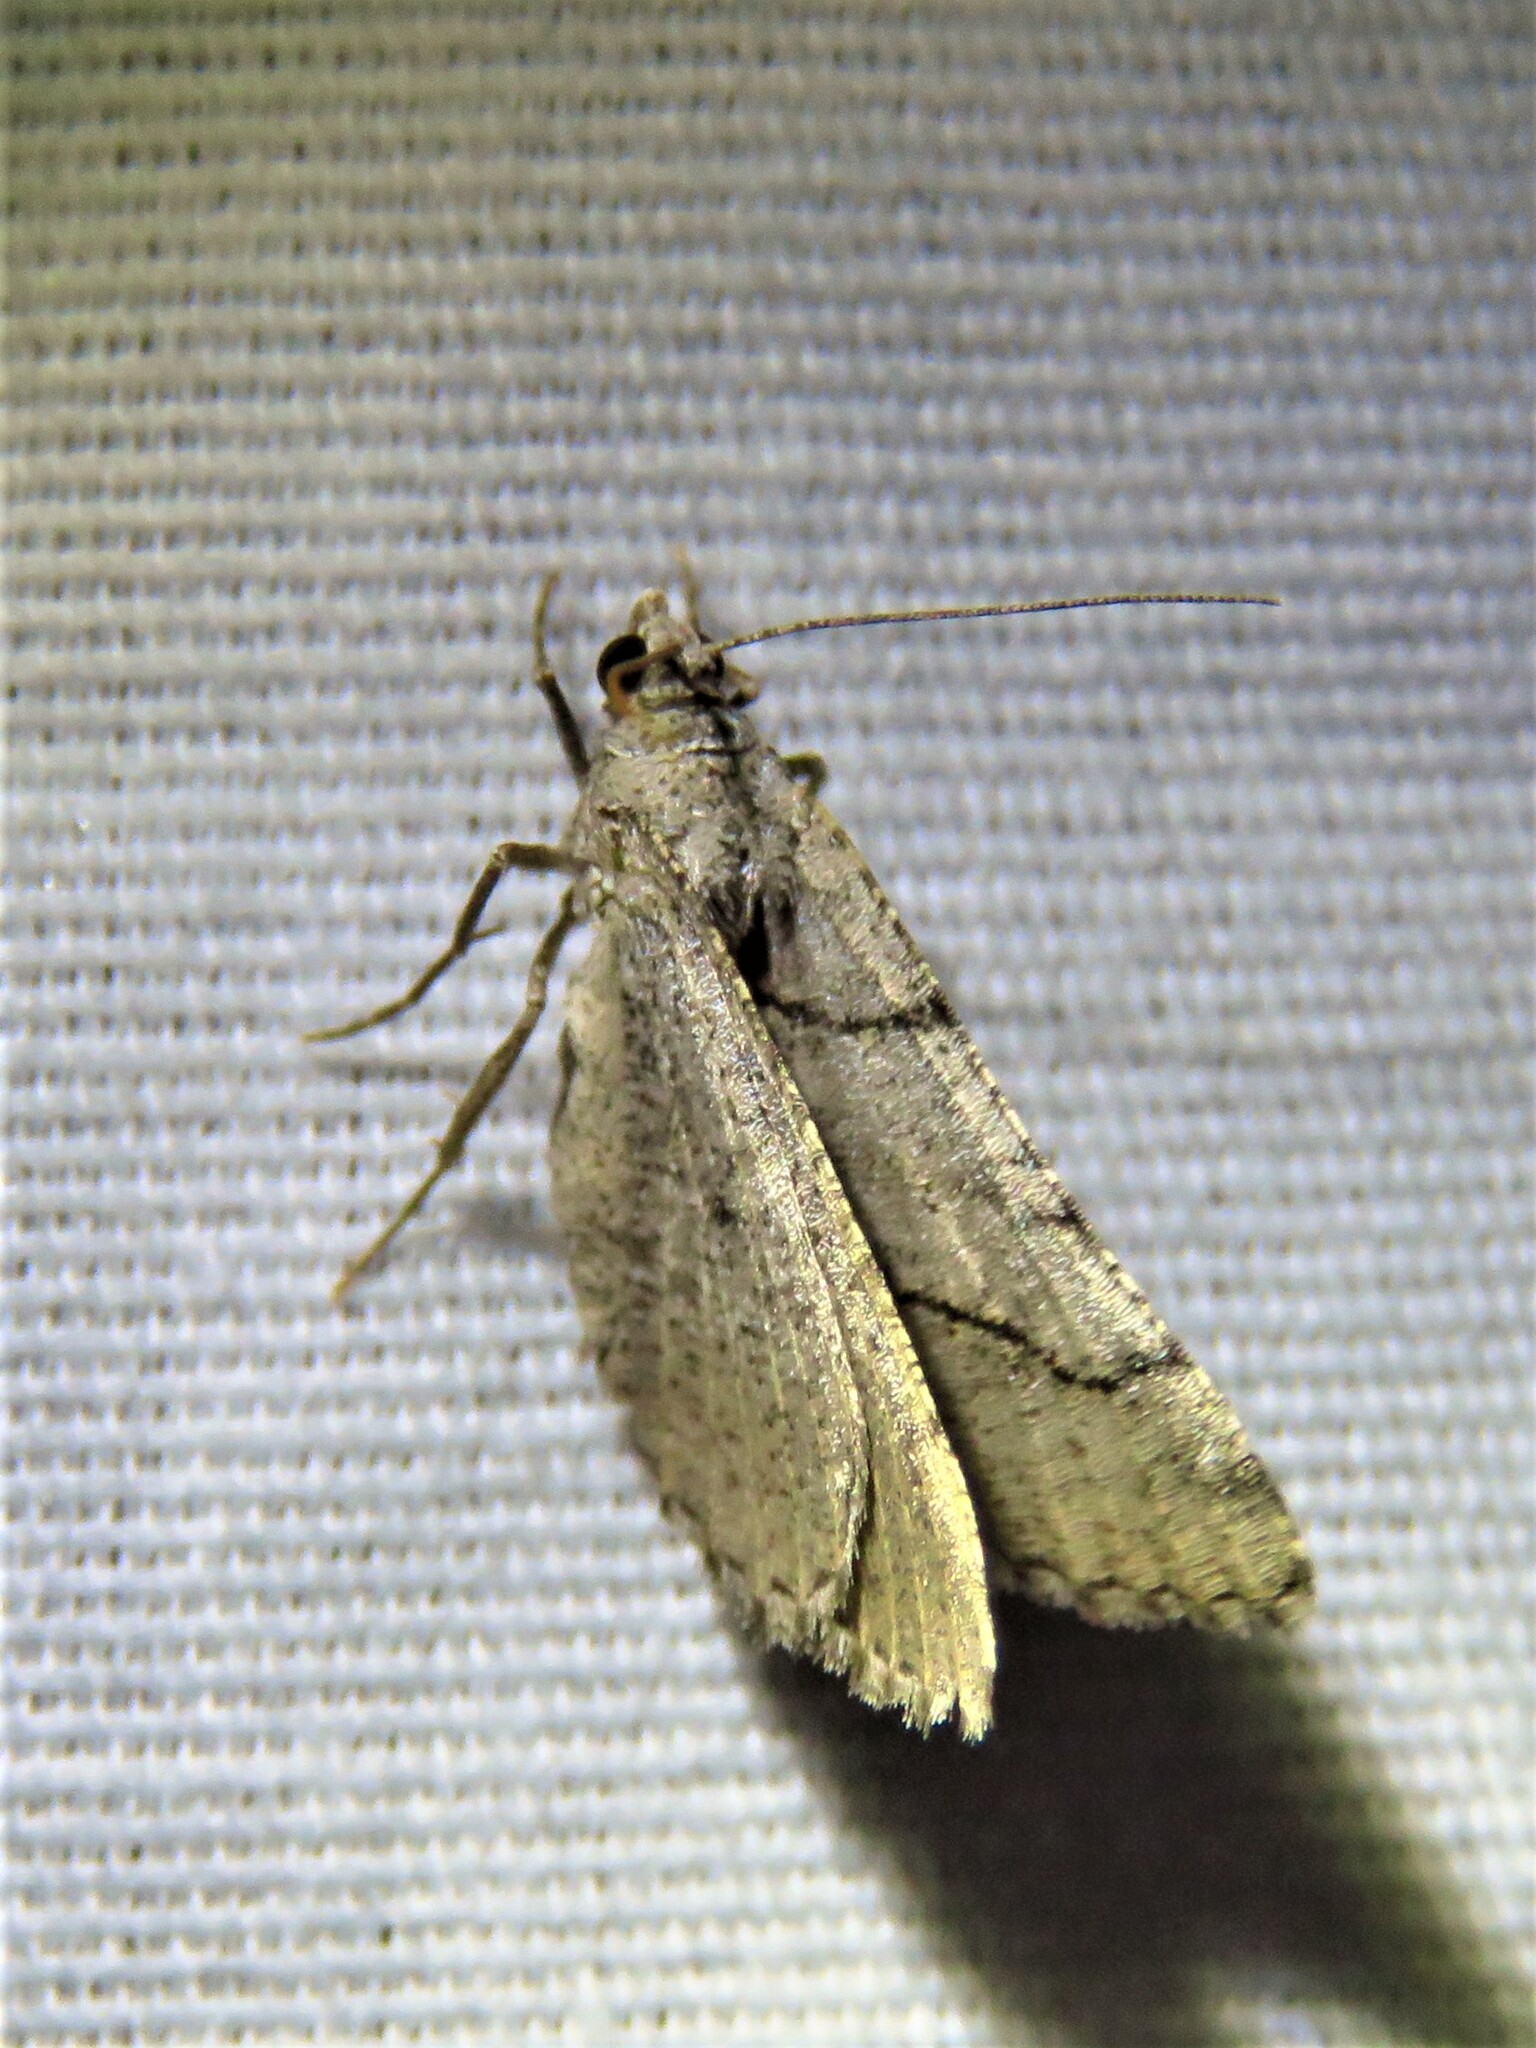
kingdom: Animalia
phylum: Arthropoda
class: Insecta
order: Lepidoptera
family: Geometridae
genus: Digrammia
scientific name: Digrammia continuata
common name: Curve-lined angle
